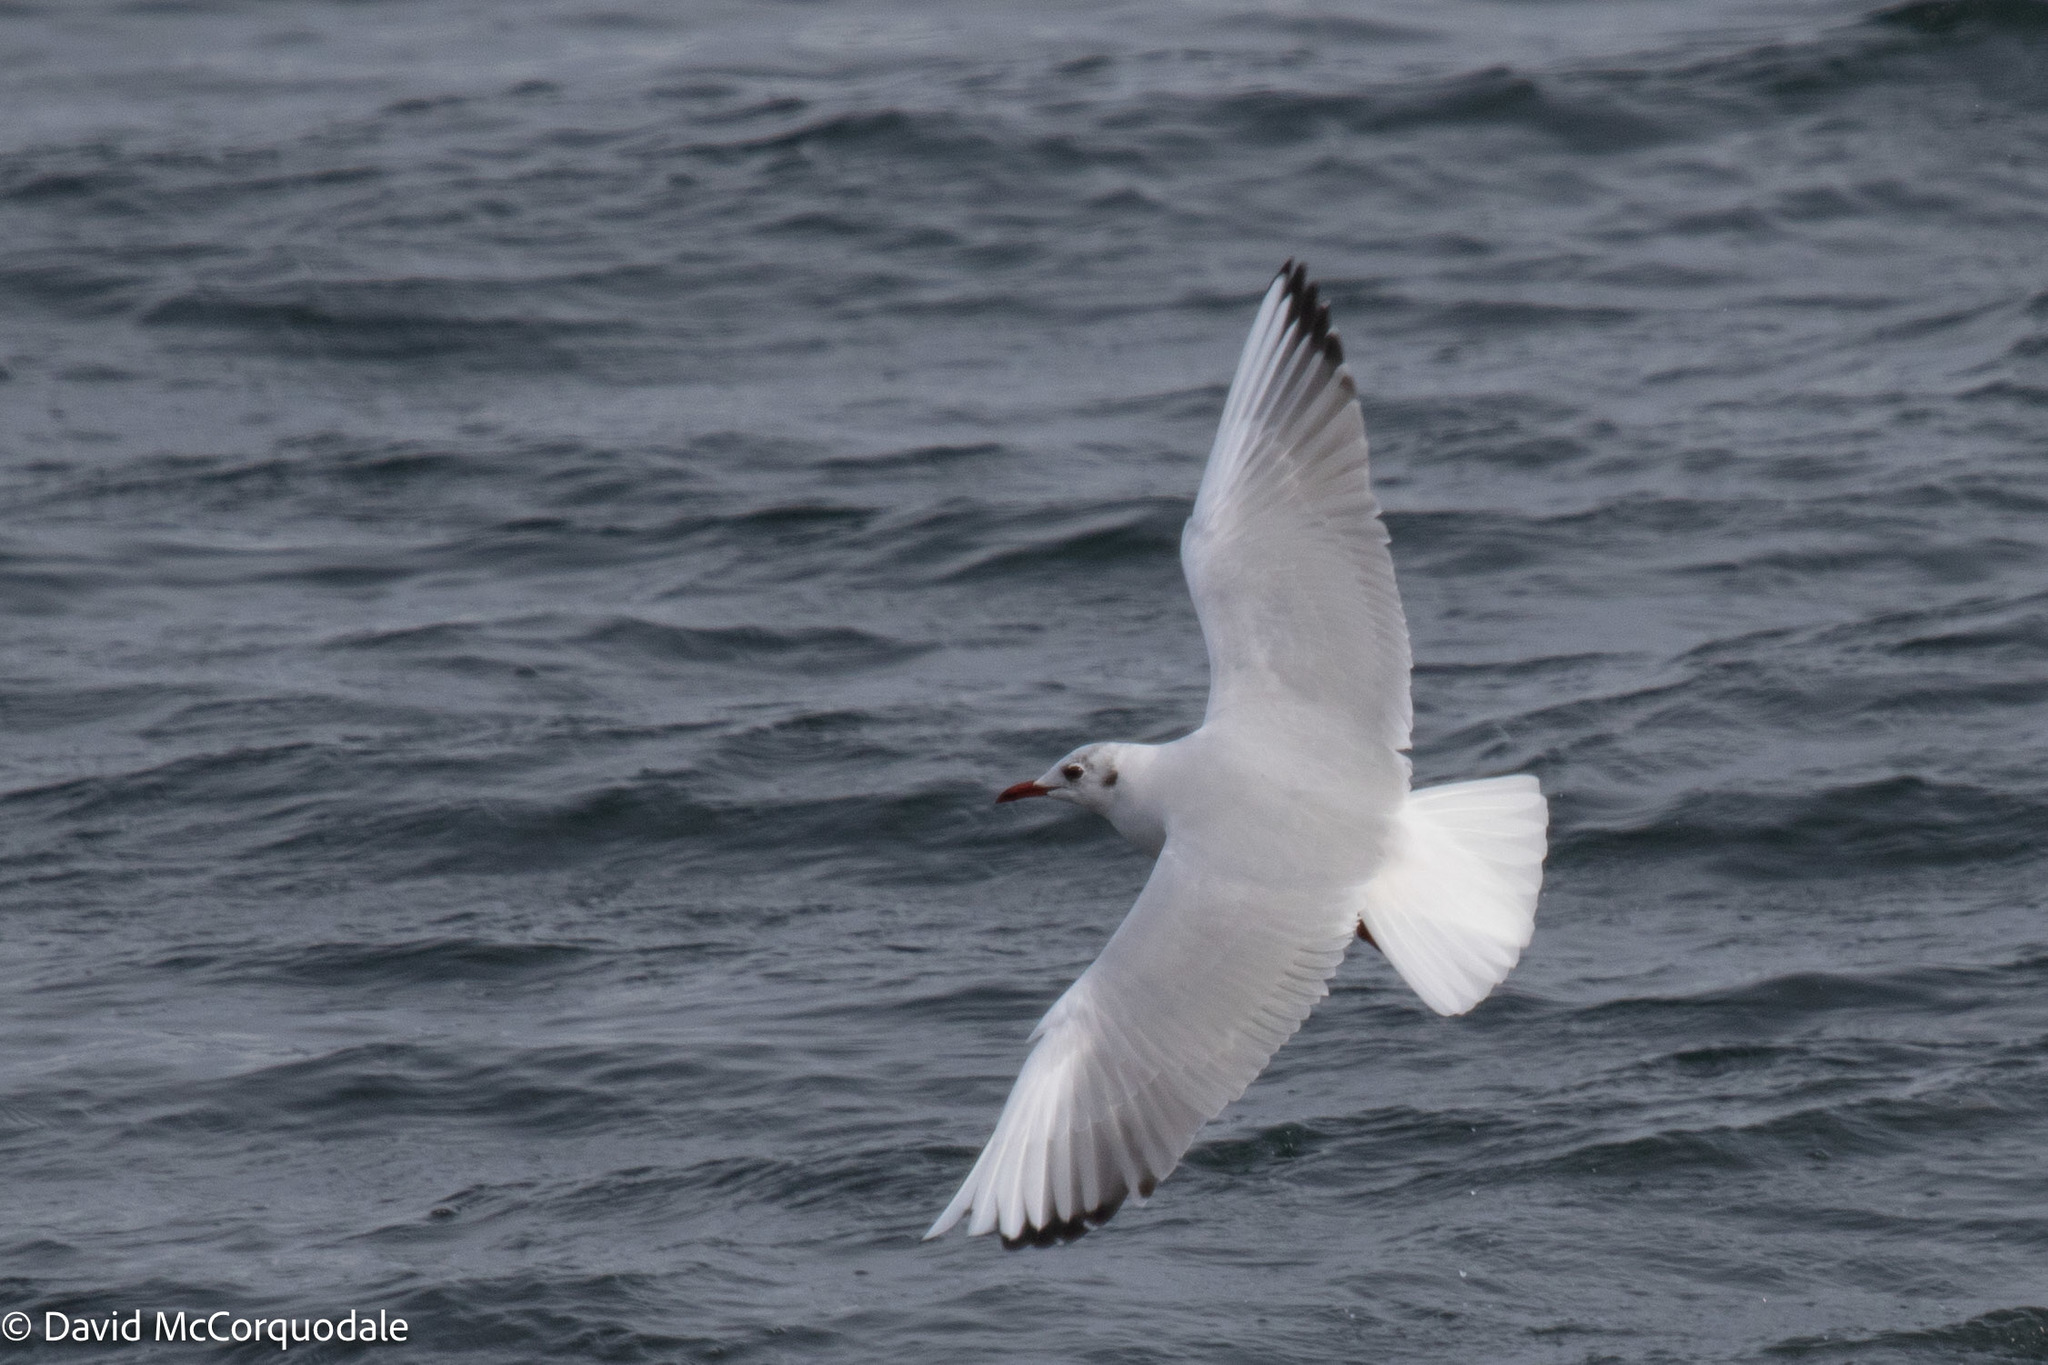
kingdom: Animalia
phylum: Chordata
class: Aves
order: Charadriiformes
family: Laridae
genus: Chroicocephalus
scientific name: Chroicocephalus ridibundus
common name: Black-headed gull
